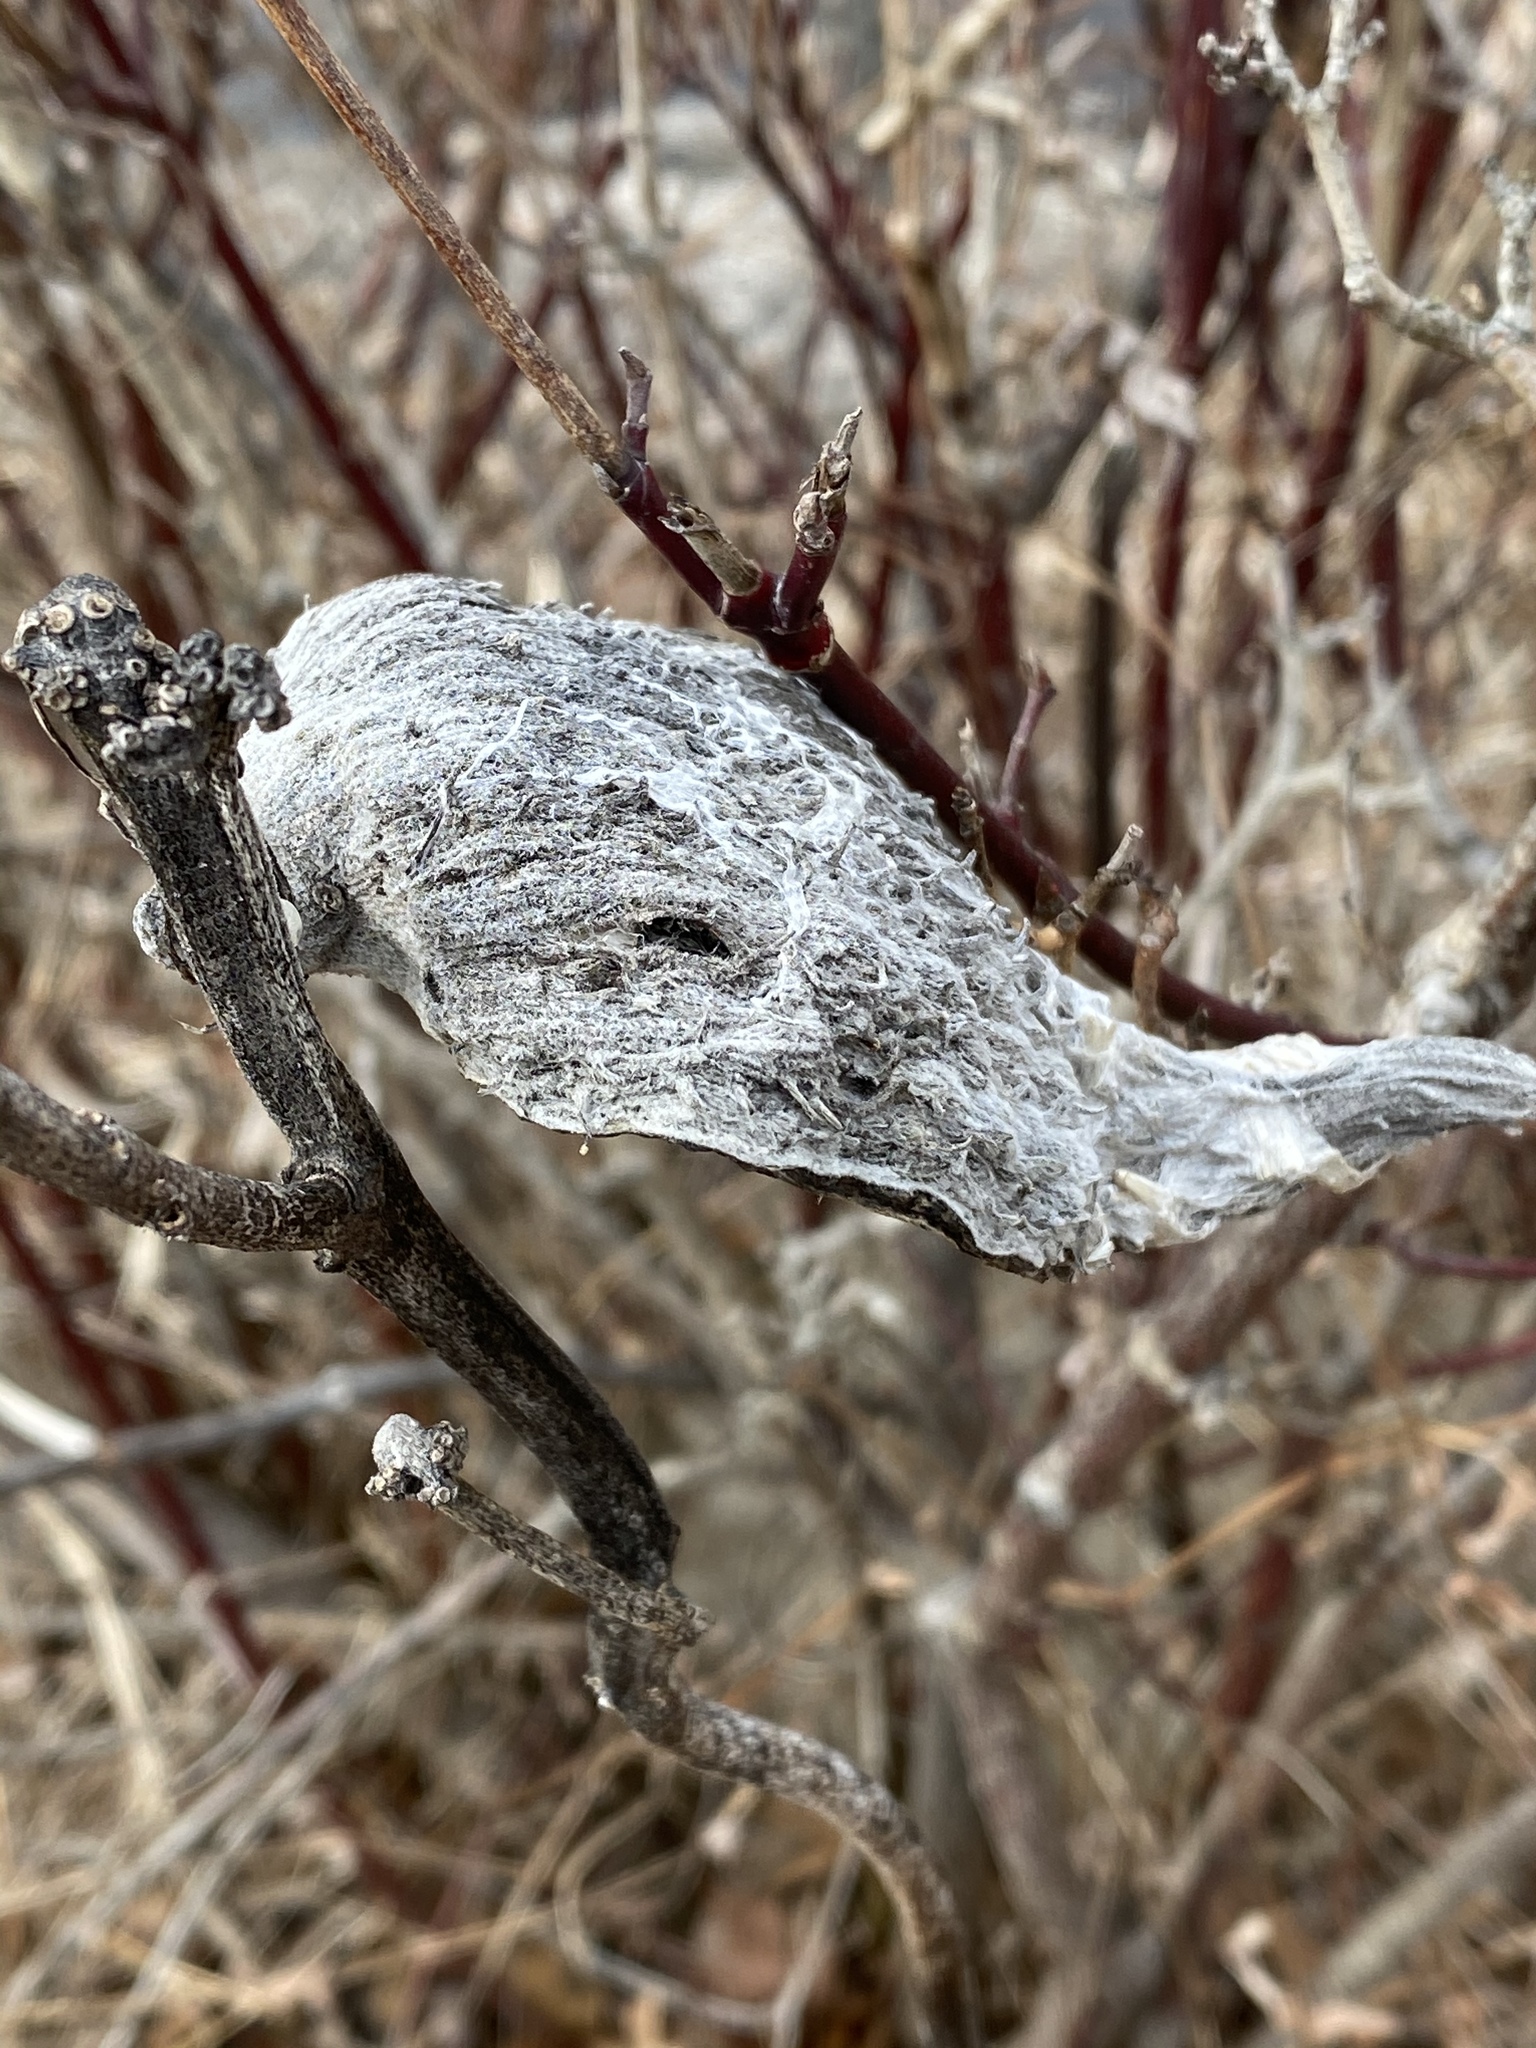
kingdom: Plantae
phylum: Tracheophyta
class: Magnoliopsida
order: Gentianales
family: Apocynaceae
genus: Asclepias
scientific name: Asclepias syriaca
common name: Common milkweed
